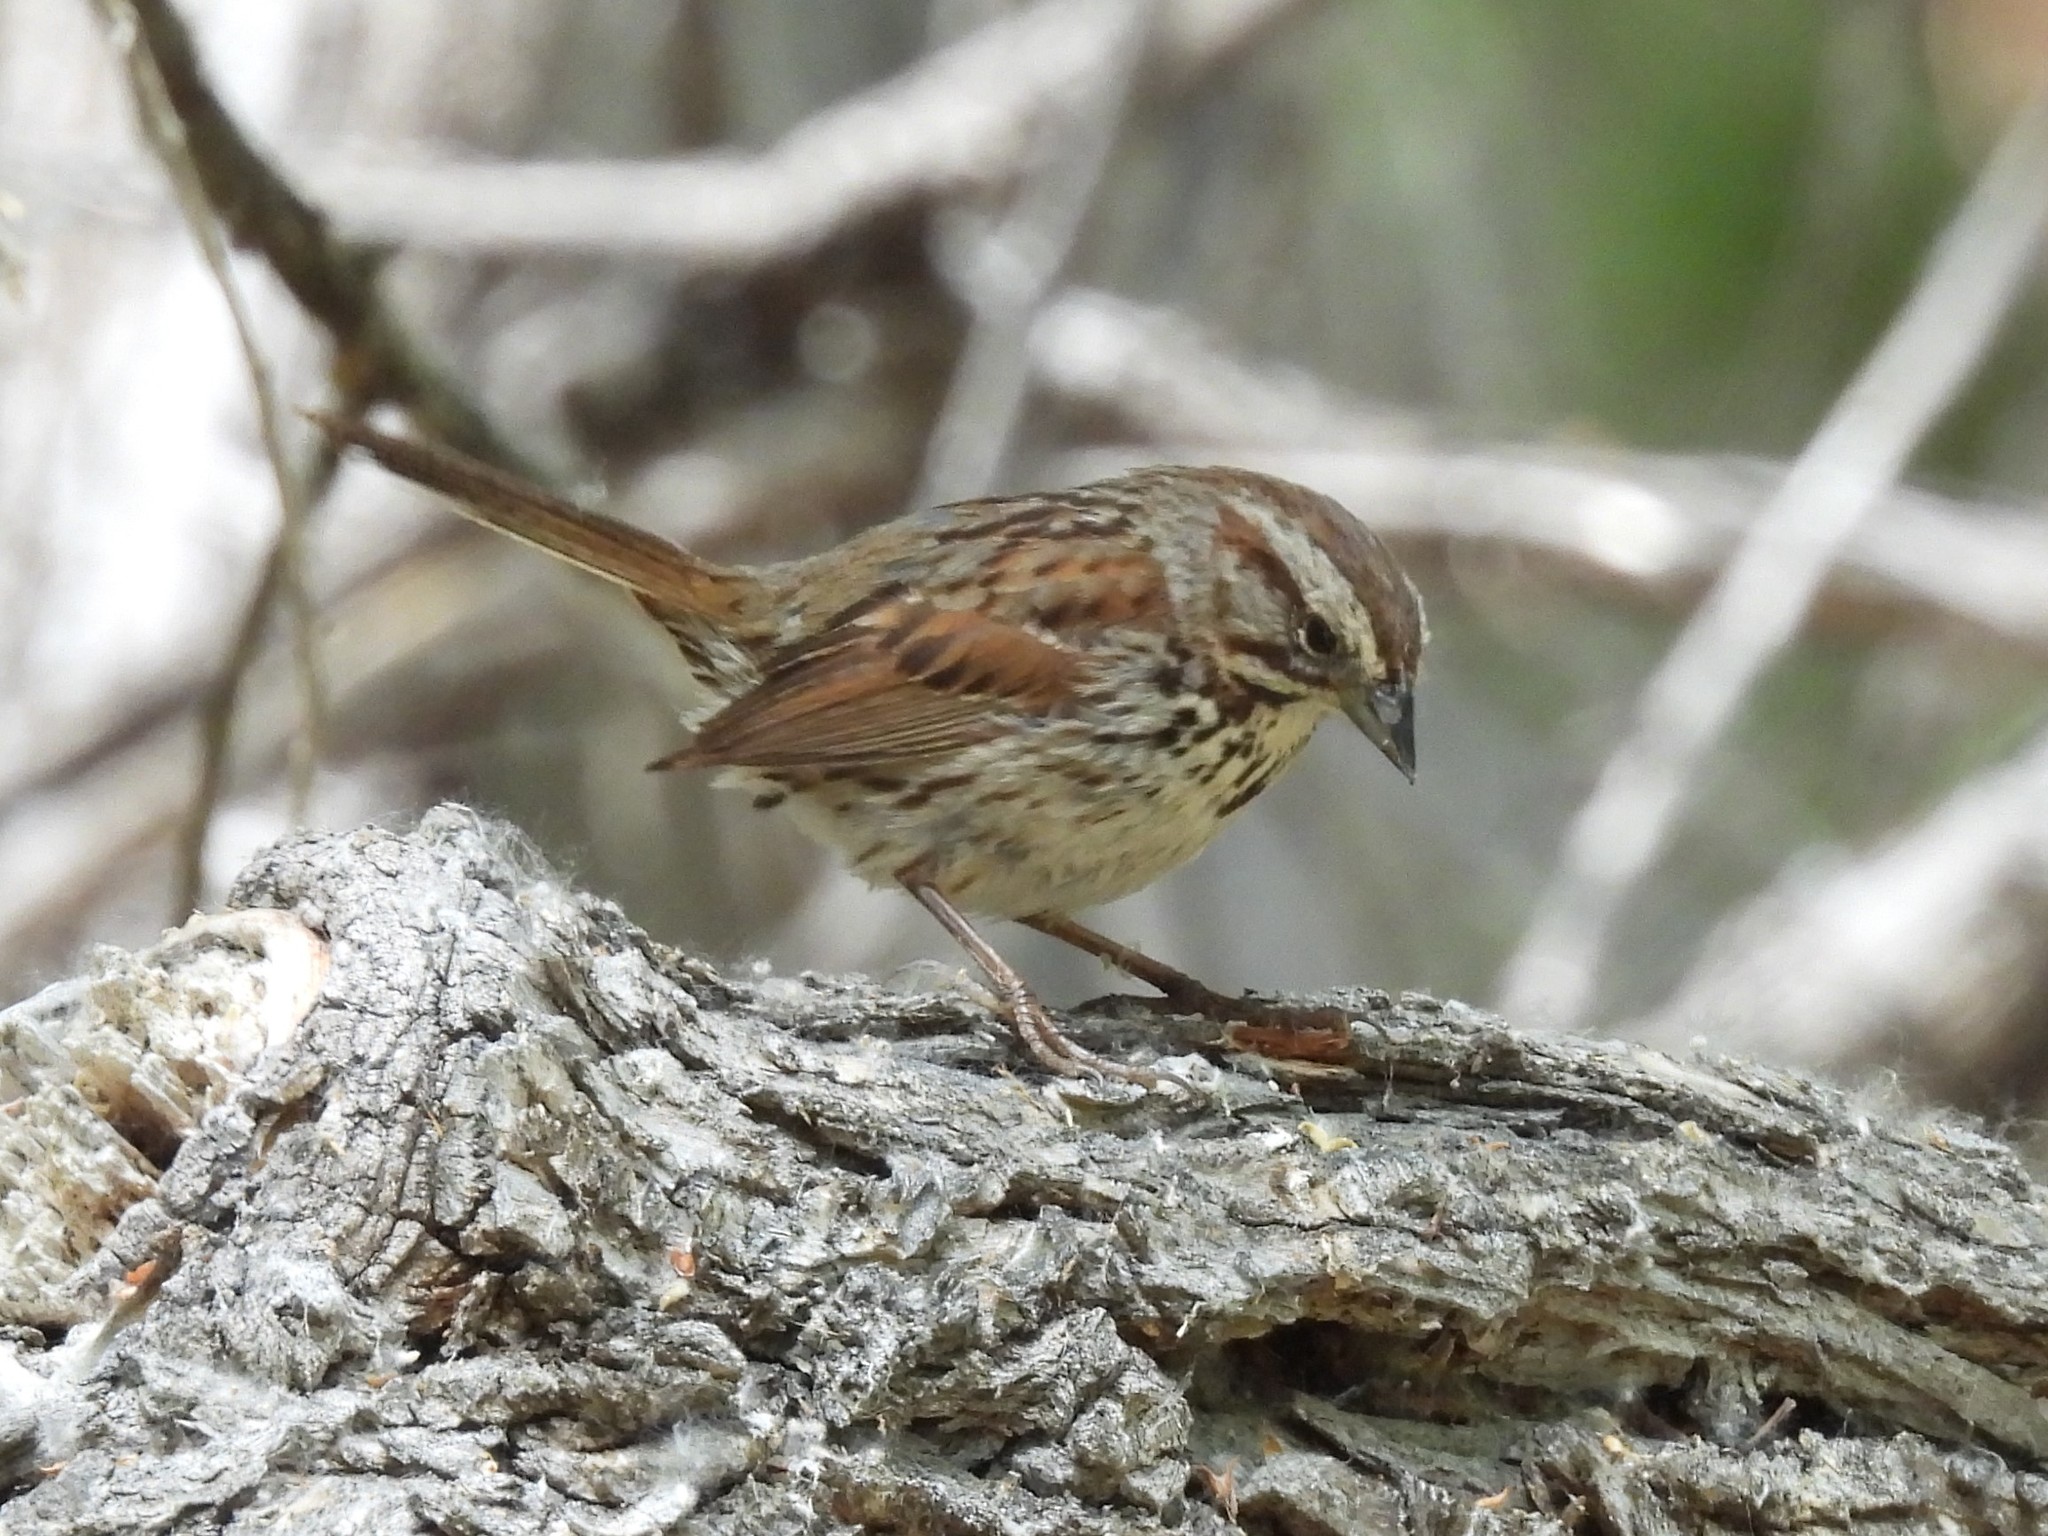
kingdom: Animalia
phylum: Chordata
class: Aves
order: Passeriformes
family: Passerellidae
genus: Melospiza
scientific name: Melospiza melodia
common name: Song sparrow
